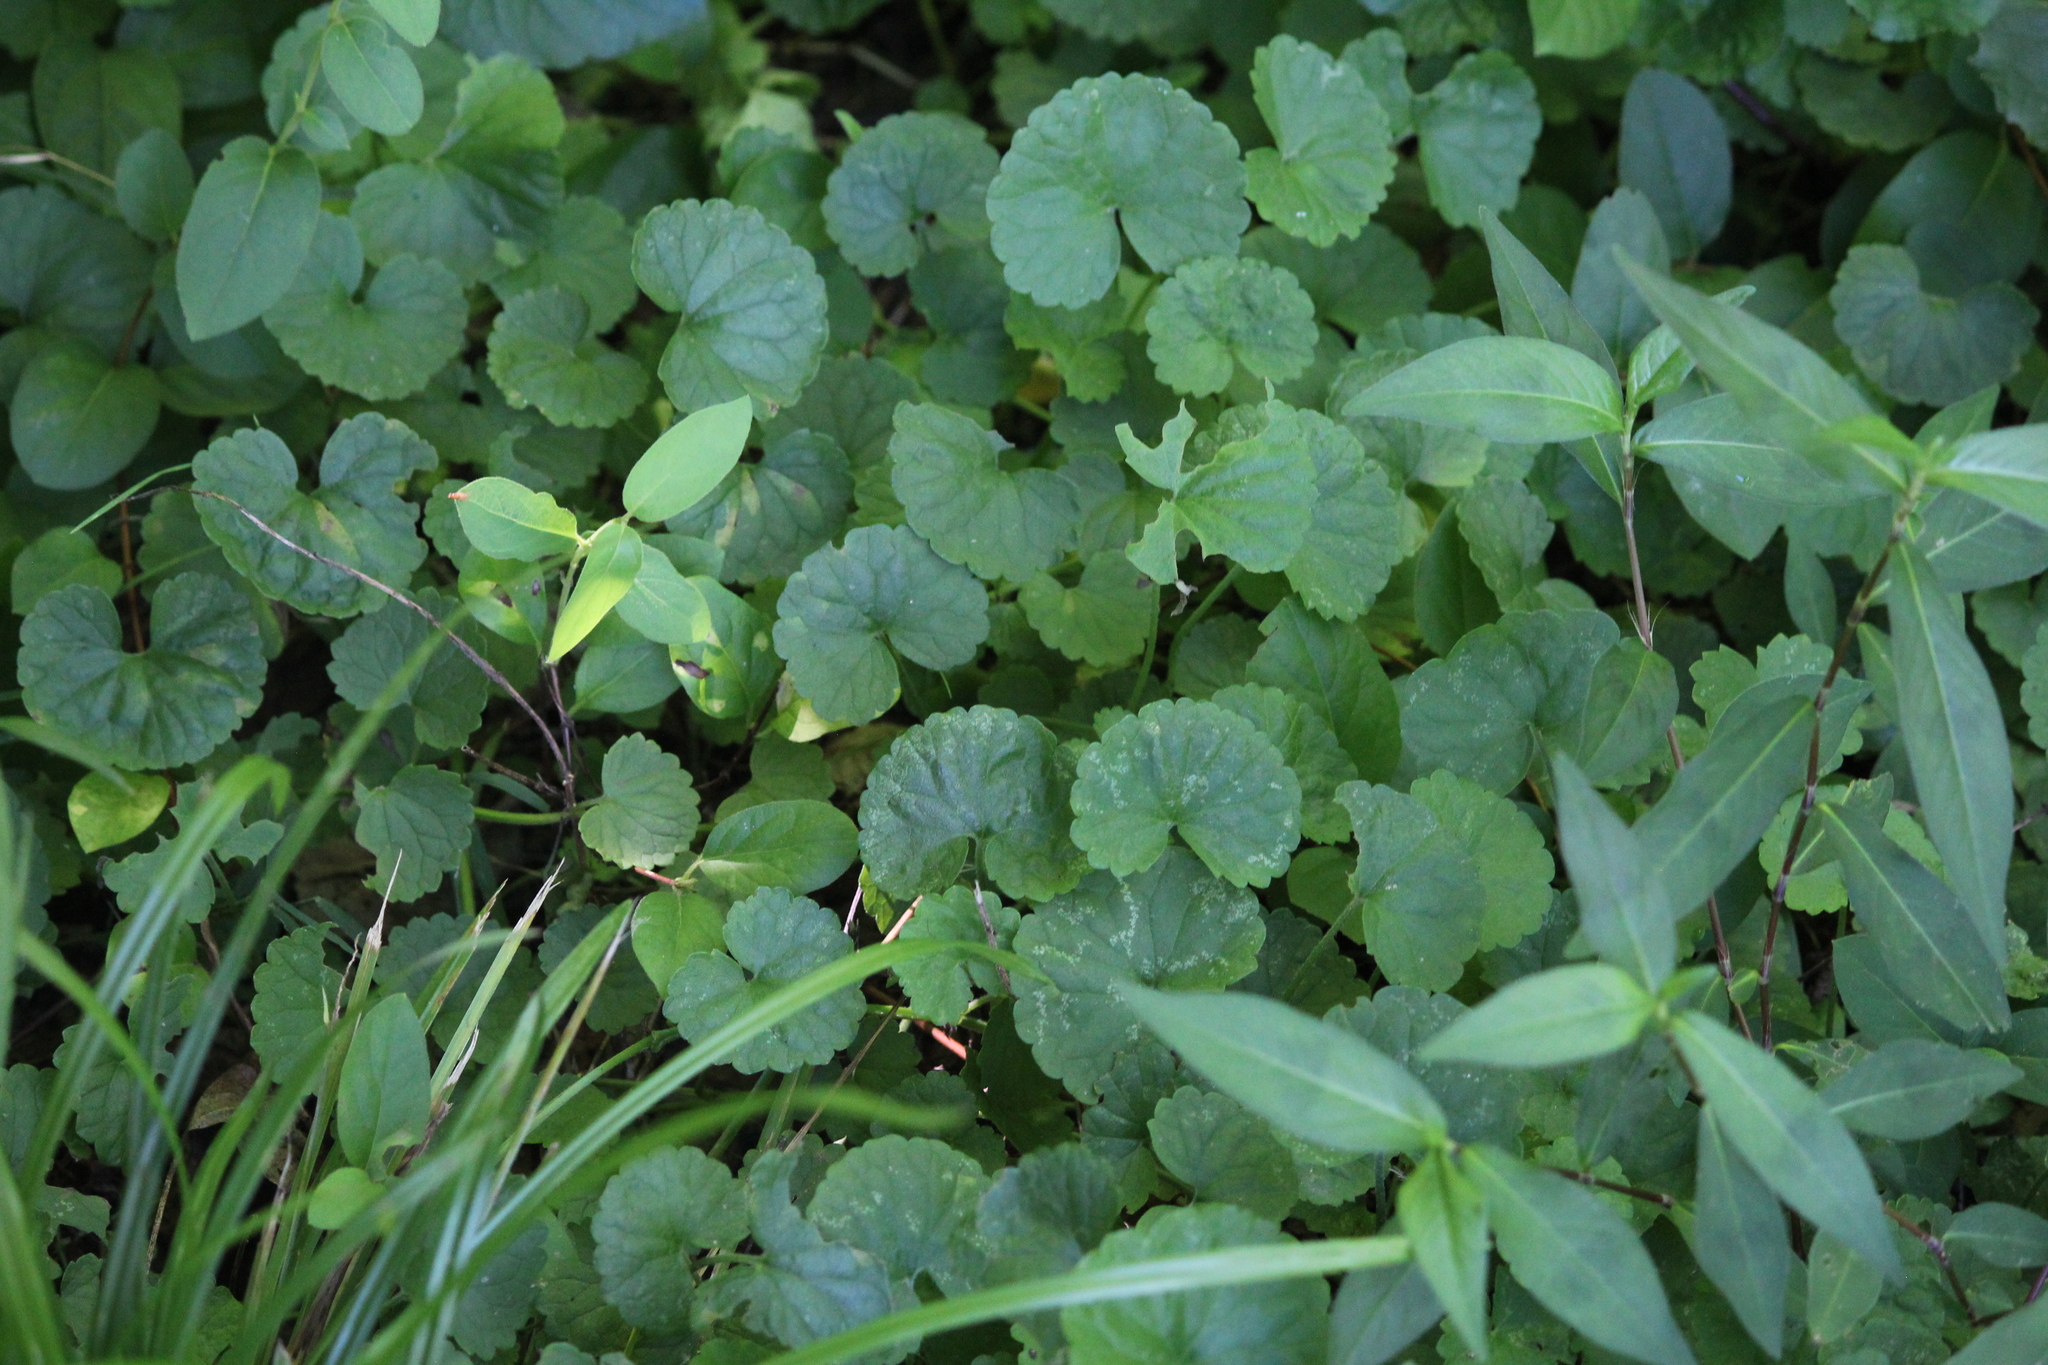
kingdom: Plantae
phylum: Tracheophyta
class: Magnoliopsida
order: Lamiales
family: Lamiaceae
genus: Glechoma
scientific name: Glechoma hederacea
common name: Ground ivy
